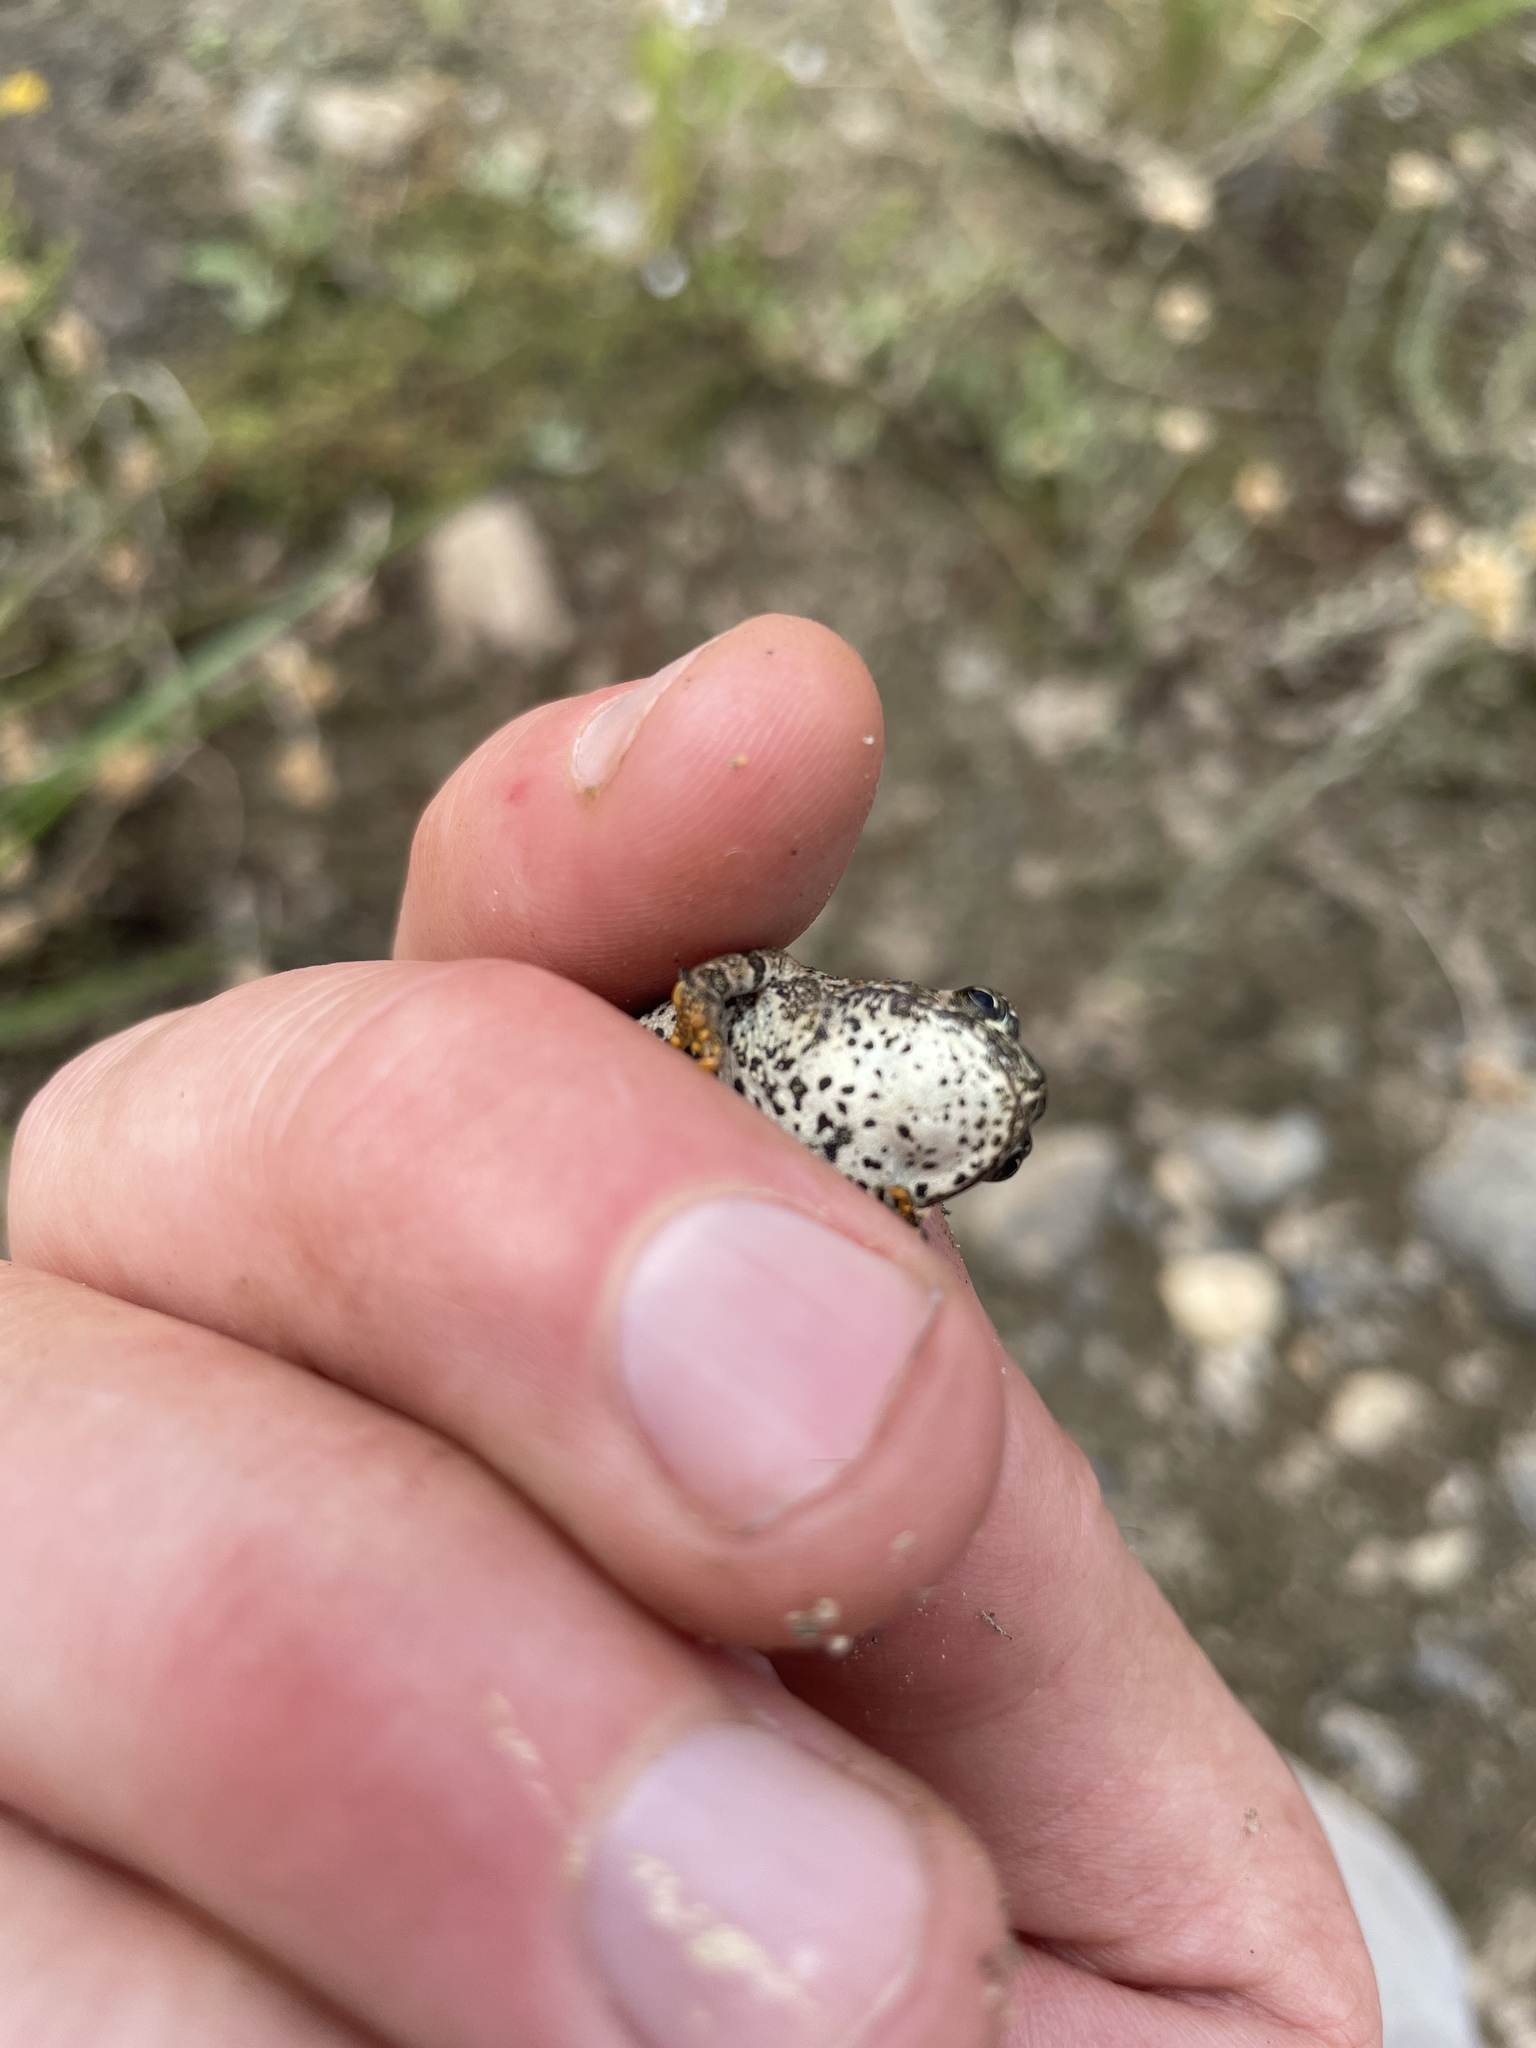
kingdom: Animalia
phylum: Chordata
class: Amphibia
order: Anura
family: Bufonidae
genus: Anaxyrus
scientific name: Anaxyrus boreas
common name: Western toad
